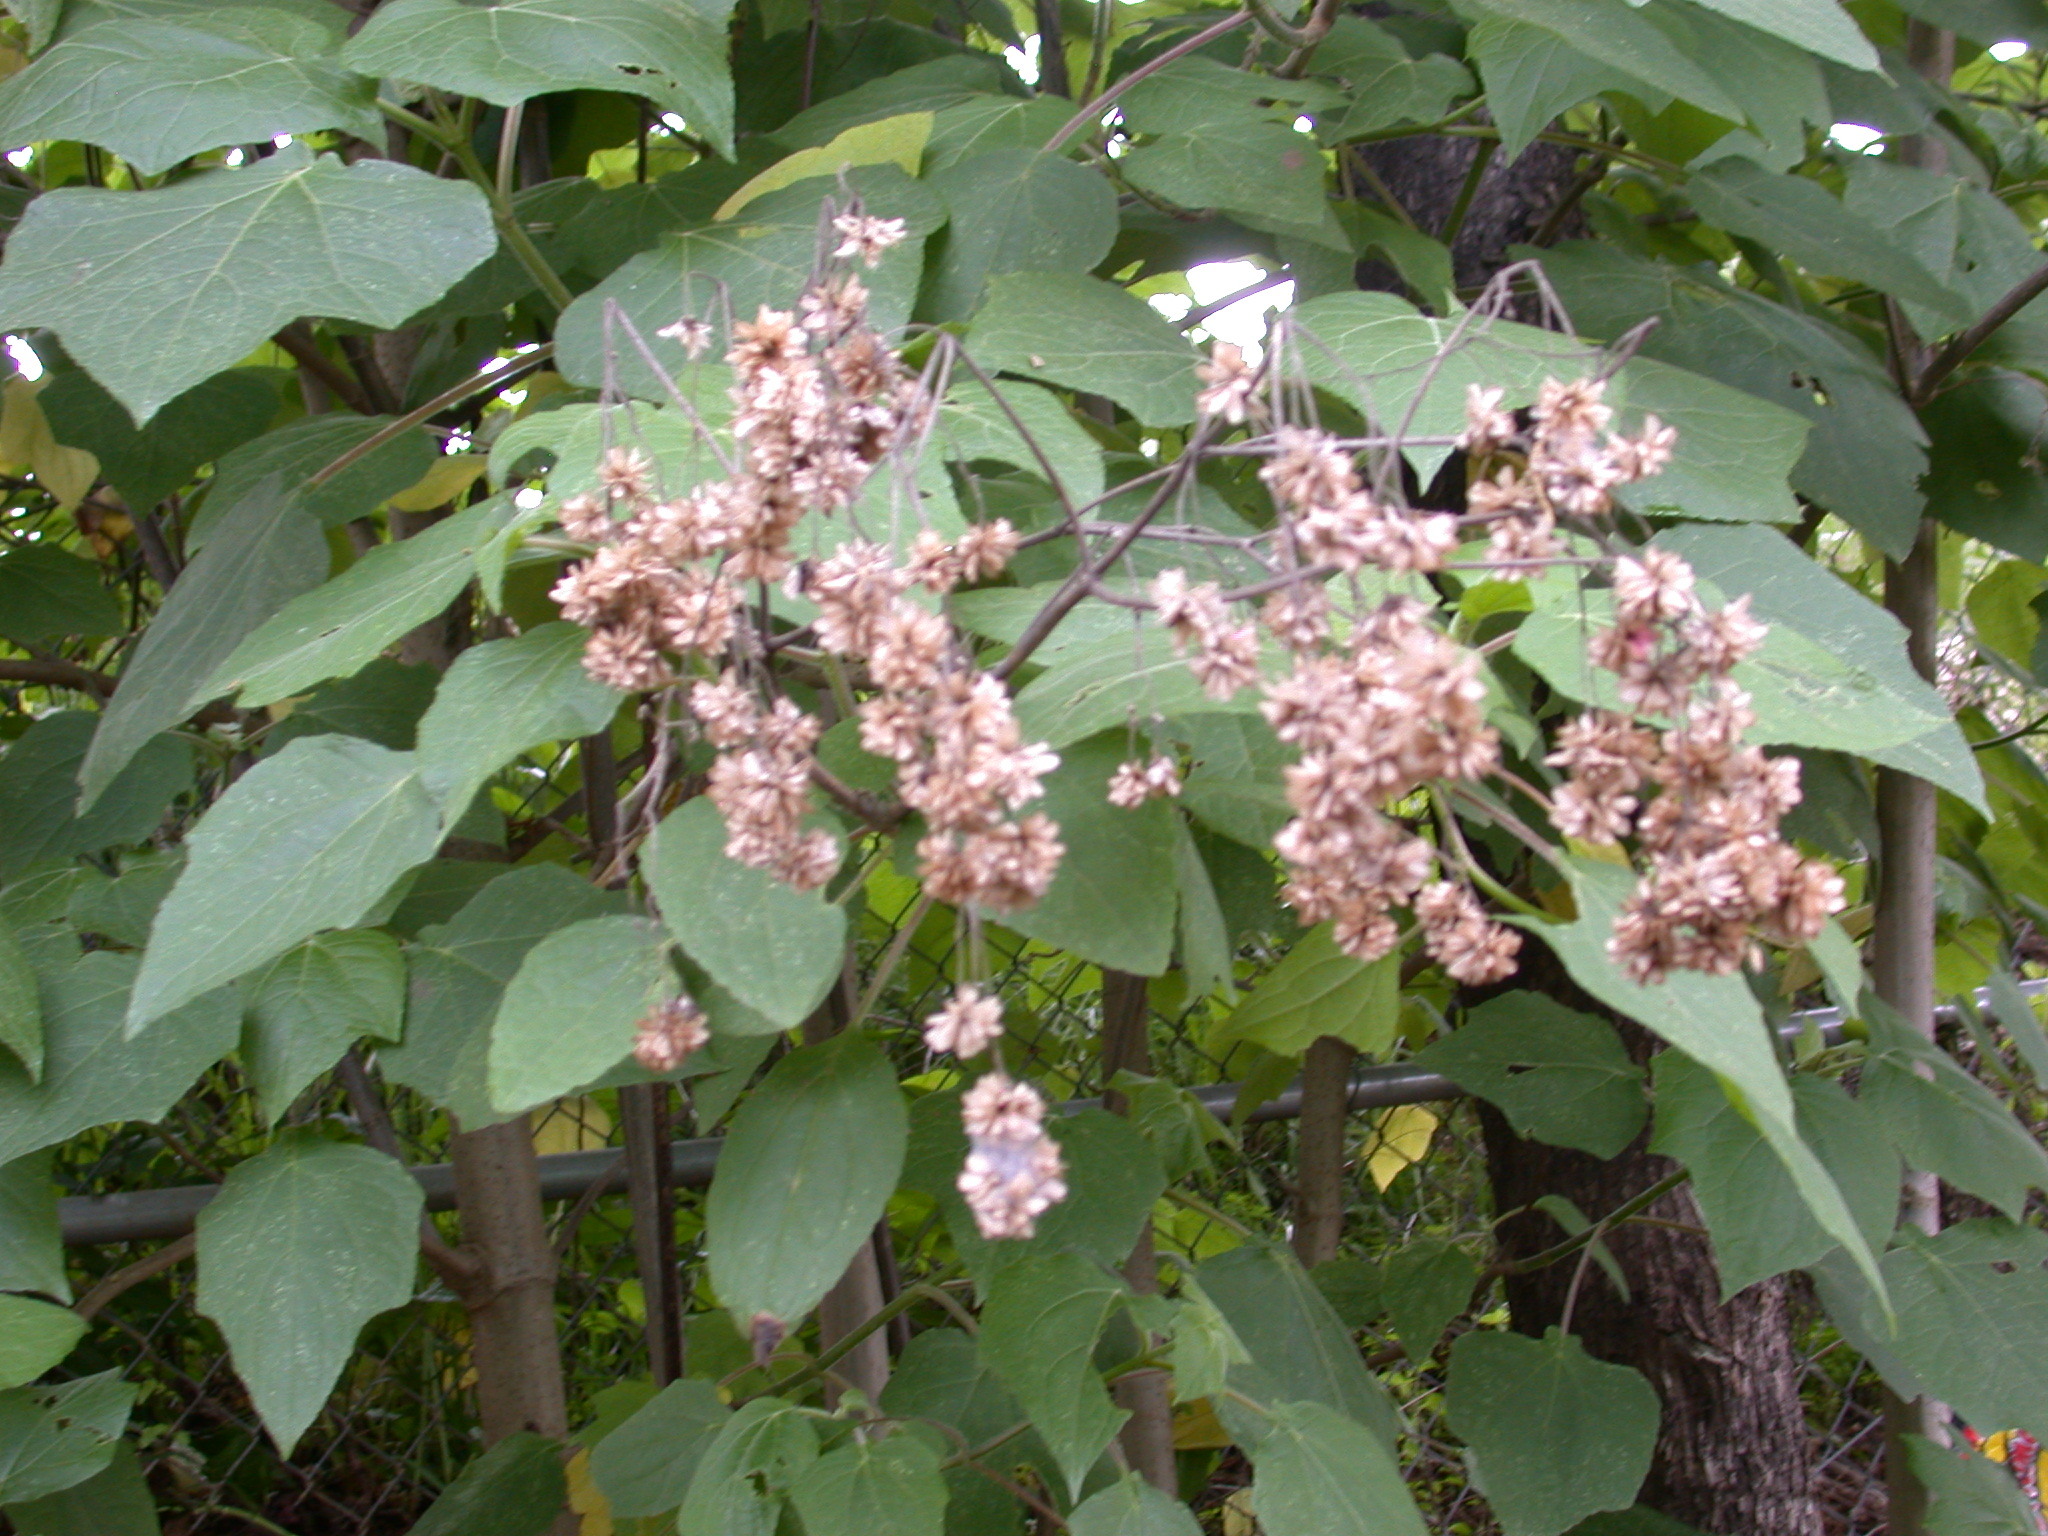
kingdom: Plantae
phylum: Tracheophyta
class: Magnoliopsida
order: Asterales
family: Asteraceae
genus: Montanoa
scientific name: Montanoa leucantha
